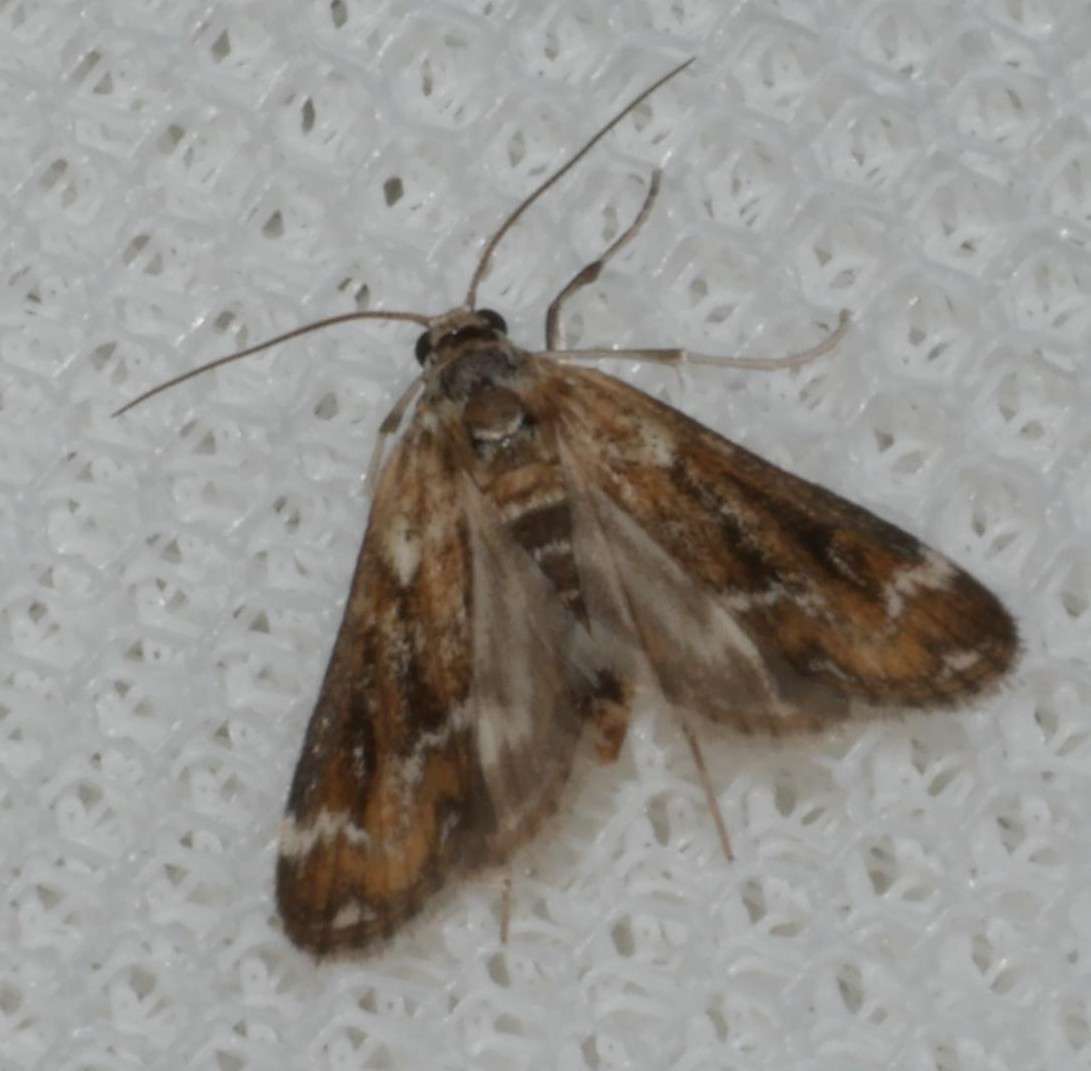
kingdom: Animalia
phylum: Arthropoda
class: Insecta
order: Lepidoptera
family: Crambidae
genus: Hygraula
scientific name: Hygraula nitens
